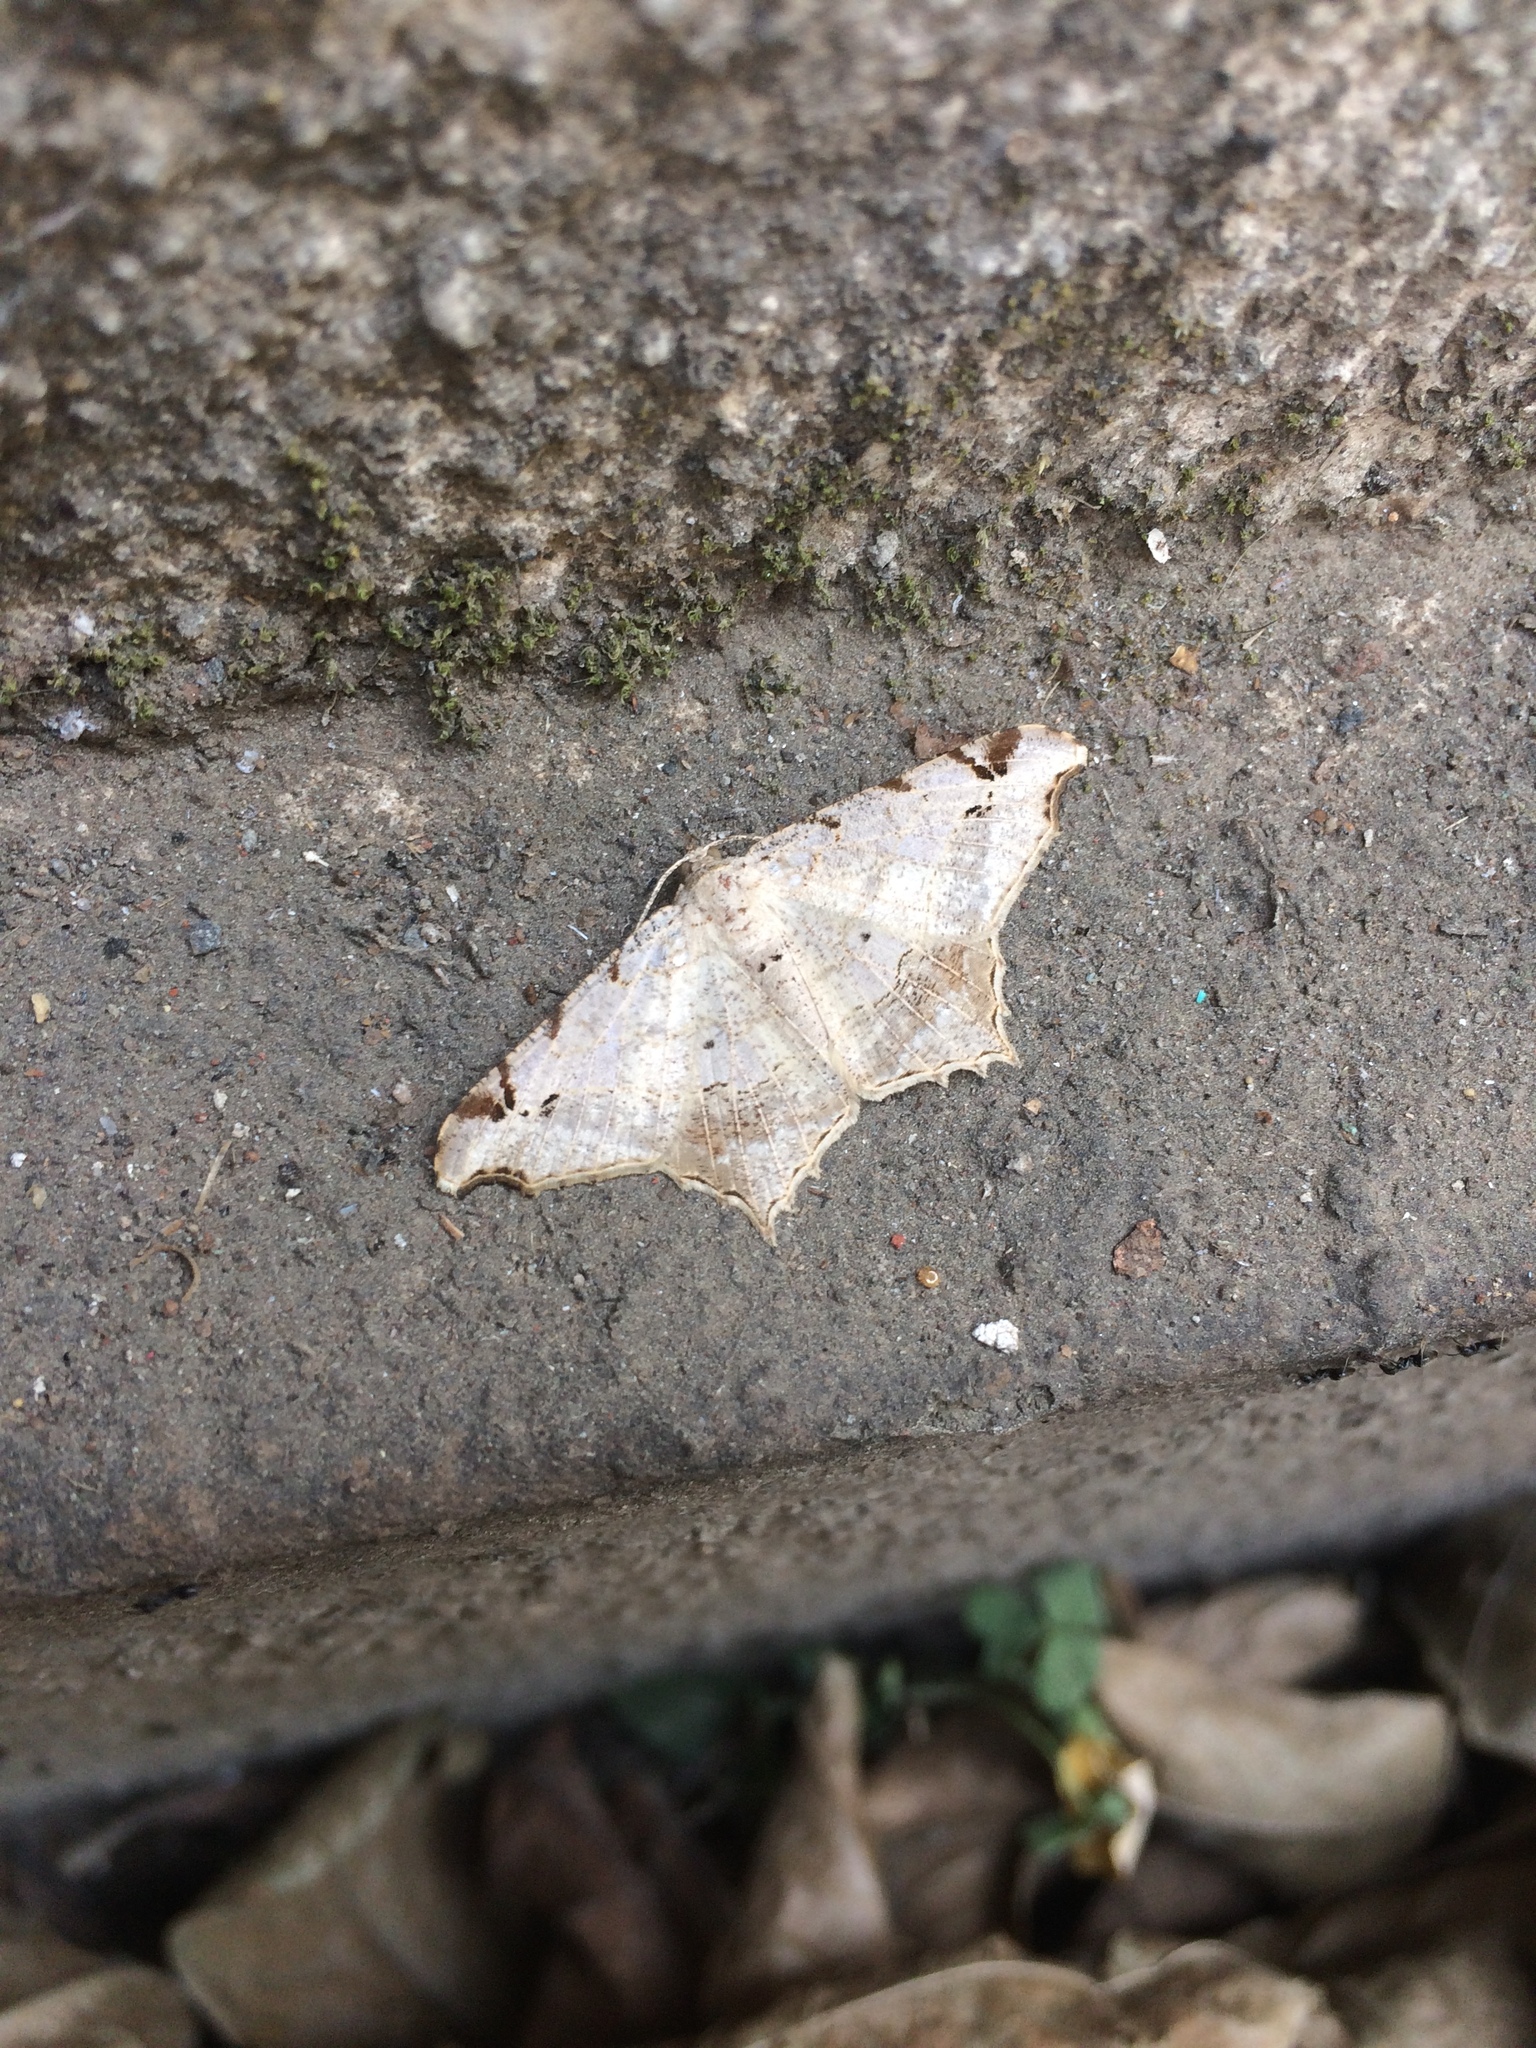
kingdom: Animalia
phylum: Arthropoda
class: Insecta
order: Lepidoptera
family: Geometridae
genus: Chiasmia
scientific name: Chiasmia emersaria
